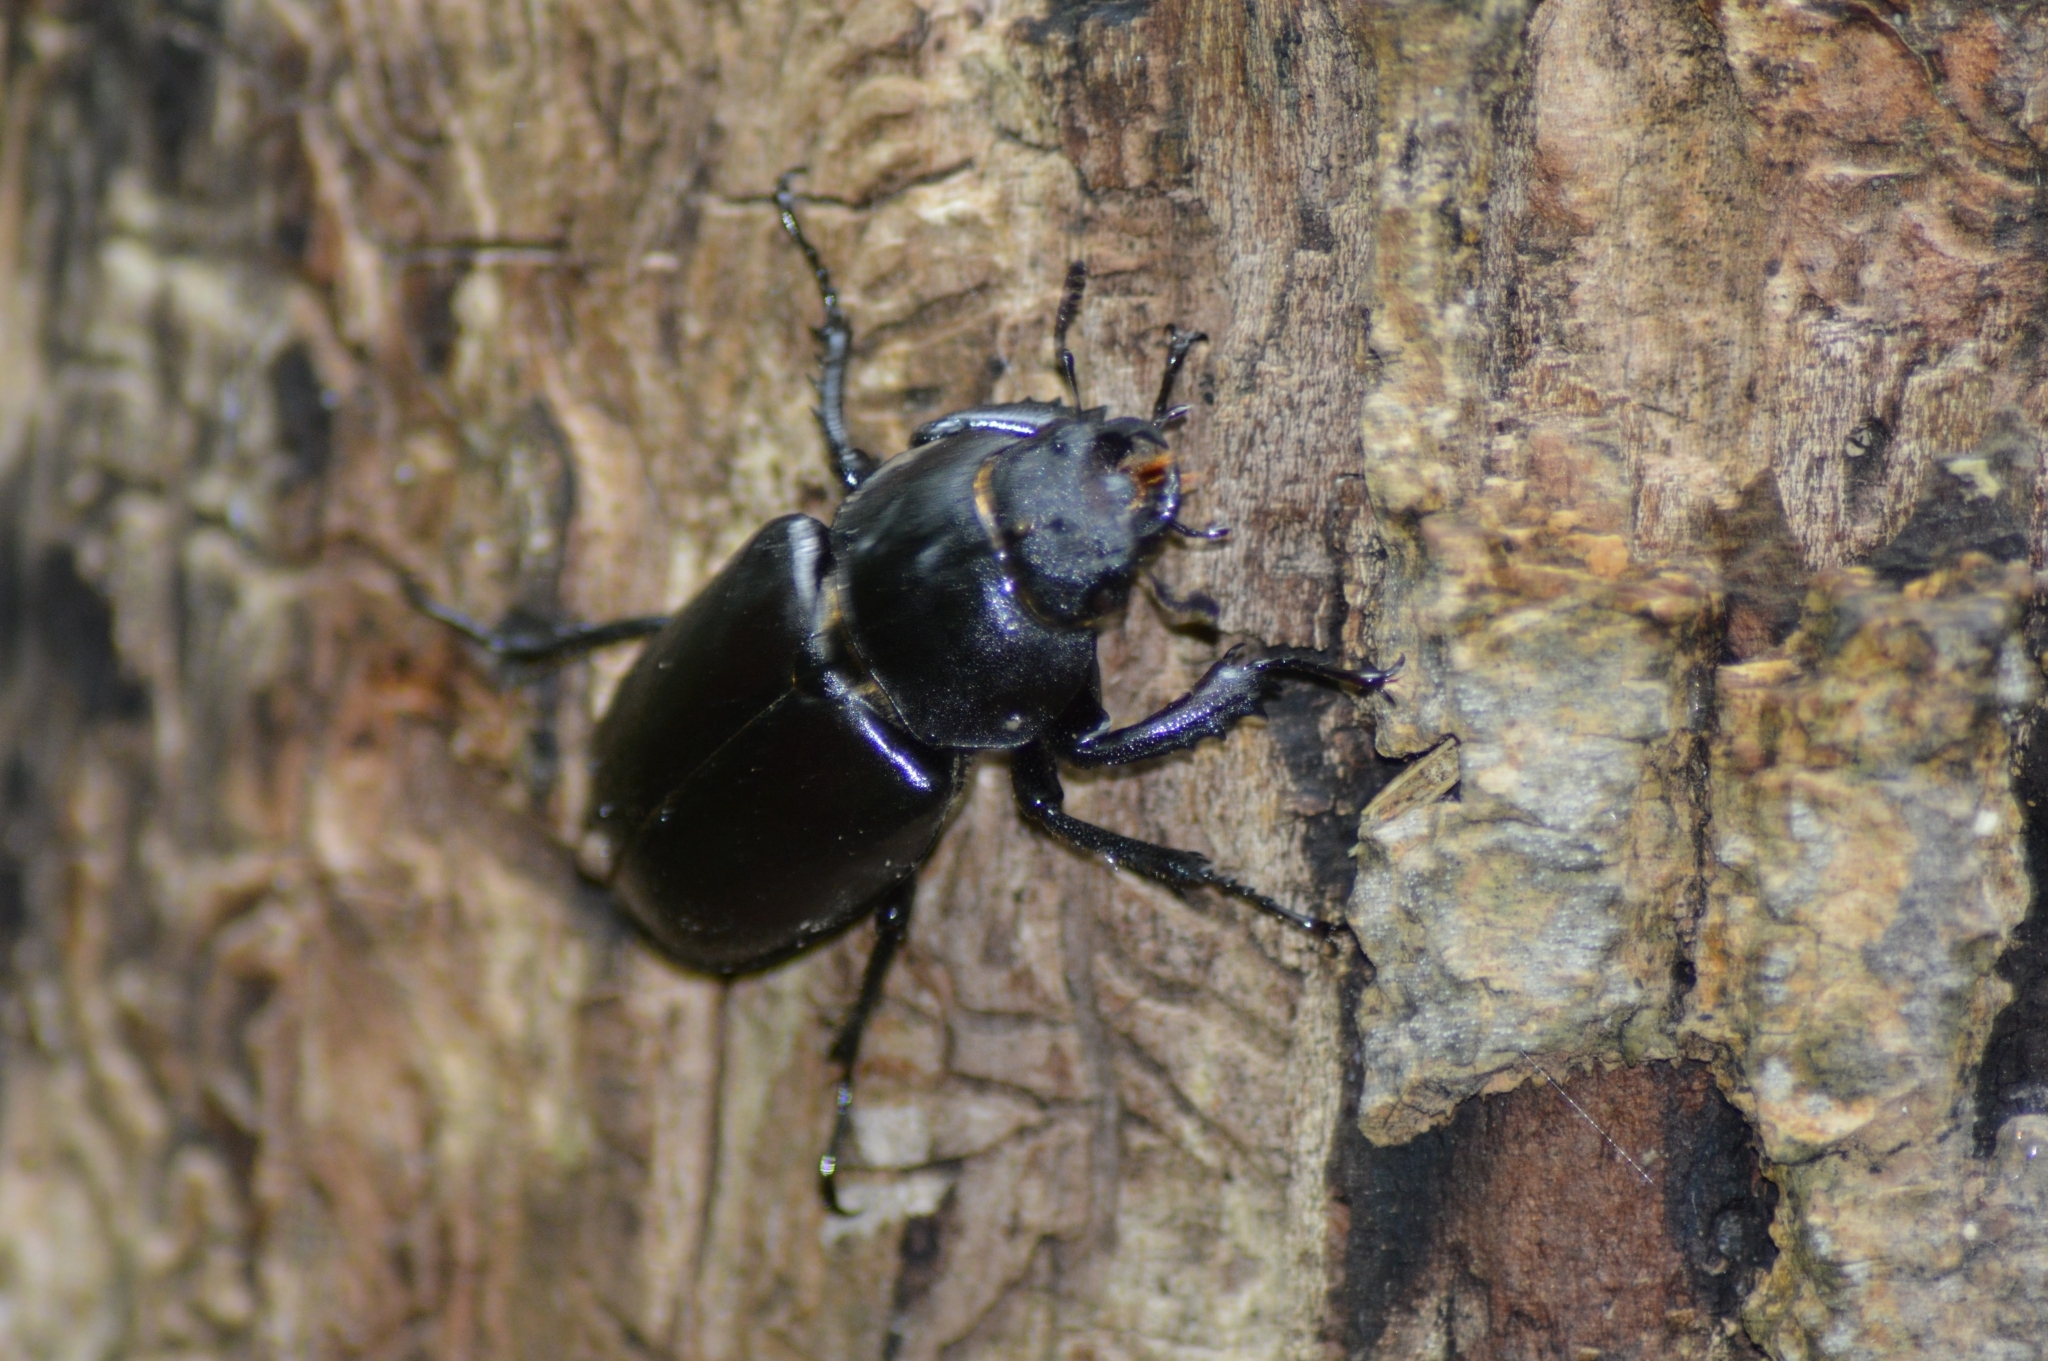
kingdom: Animalia
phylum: Arthropoda
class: Insecta
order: Coleoptera
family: Lucanidae
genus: Lucanus
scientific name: Lucanus cervus
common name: Stag beetle
